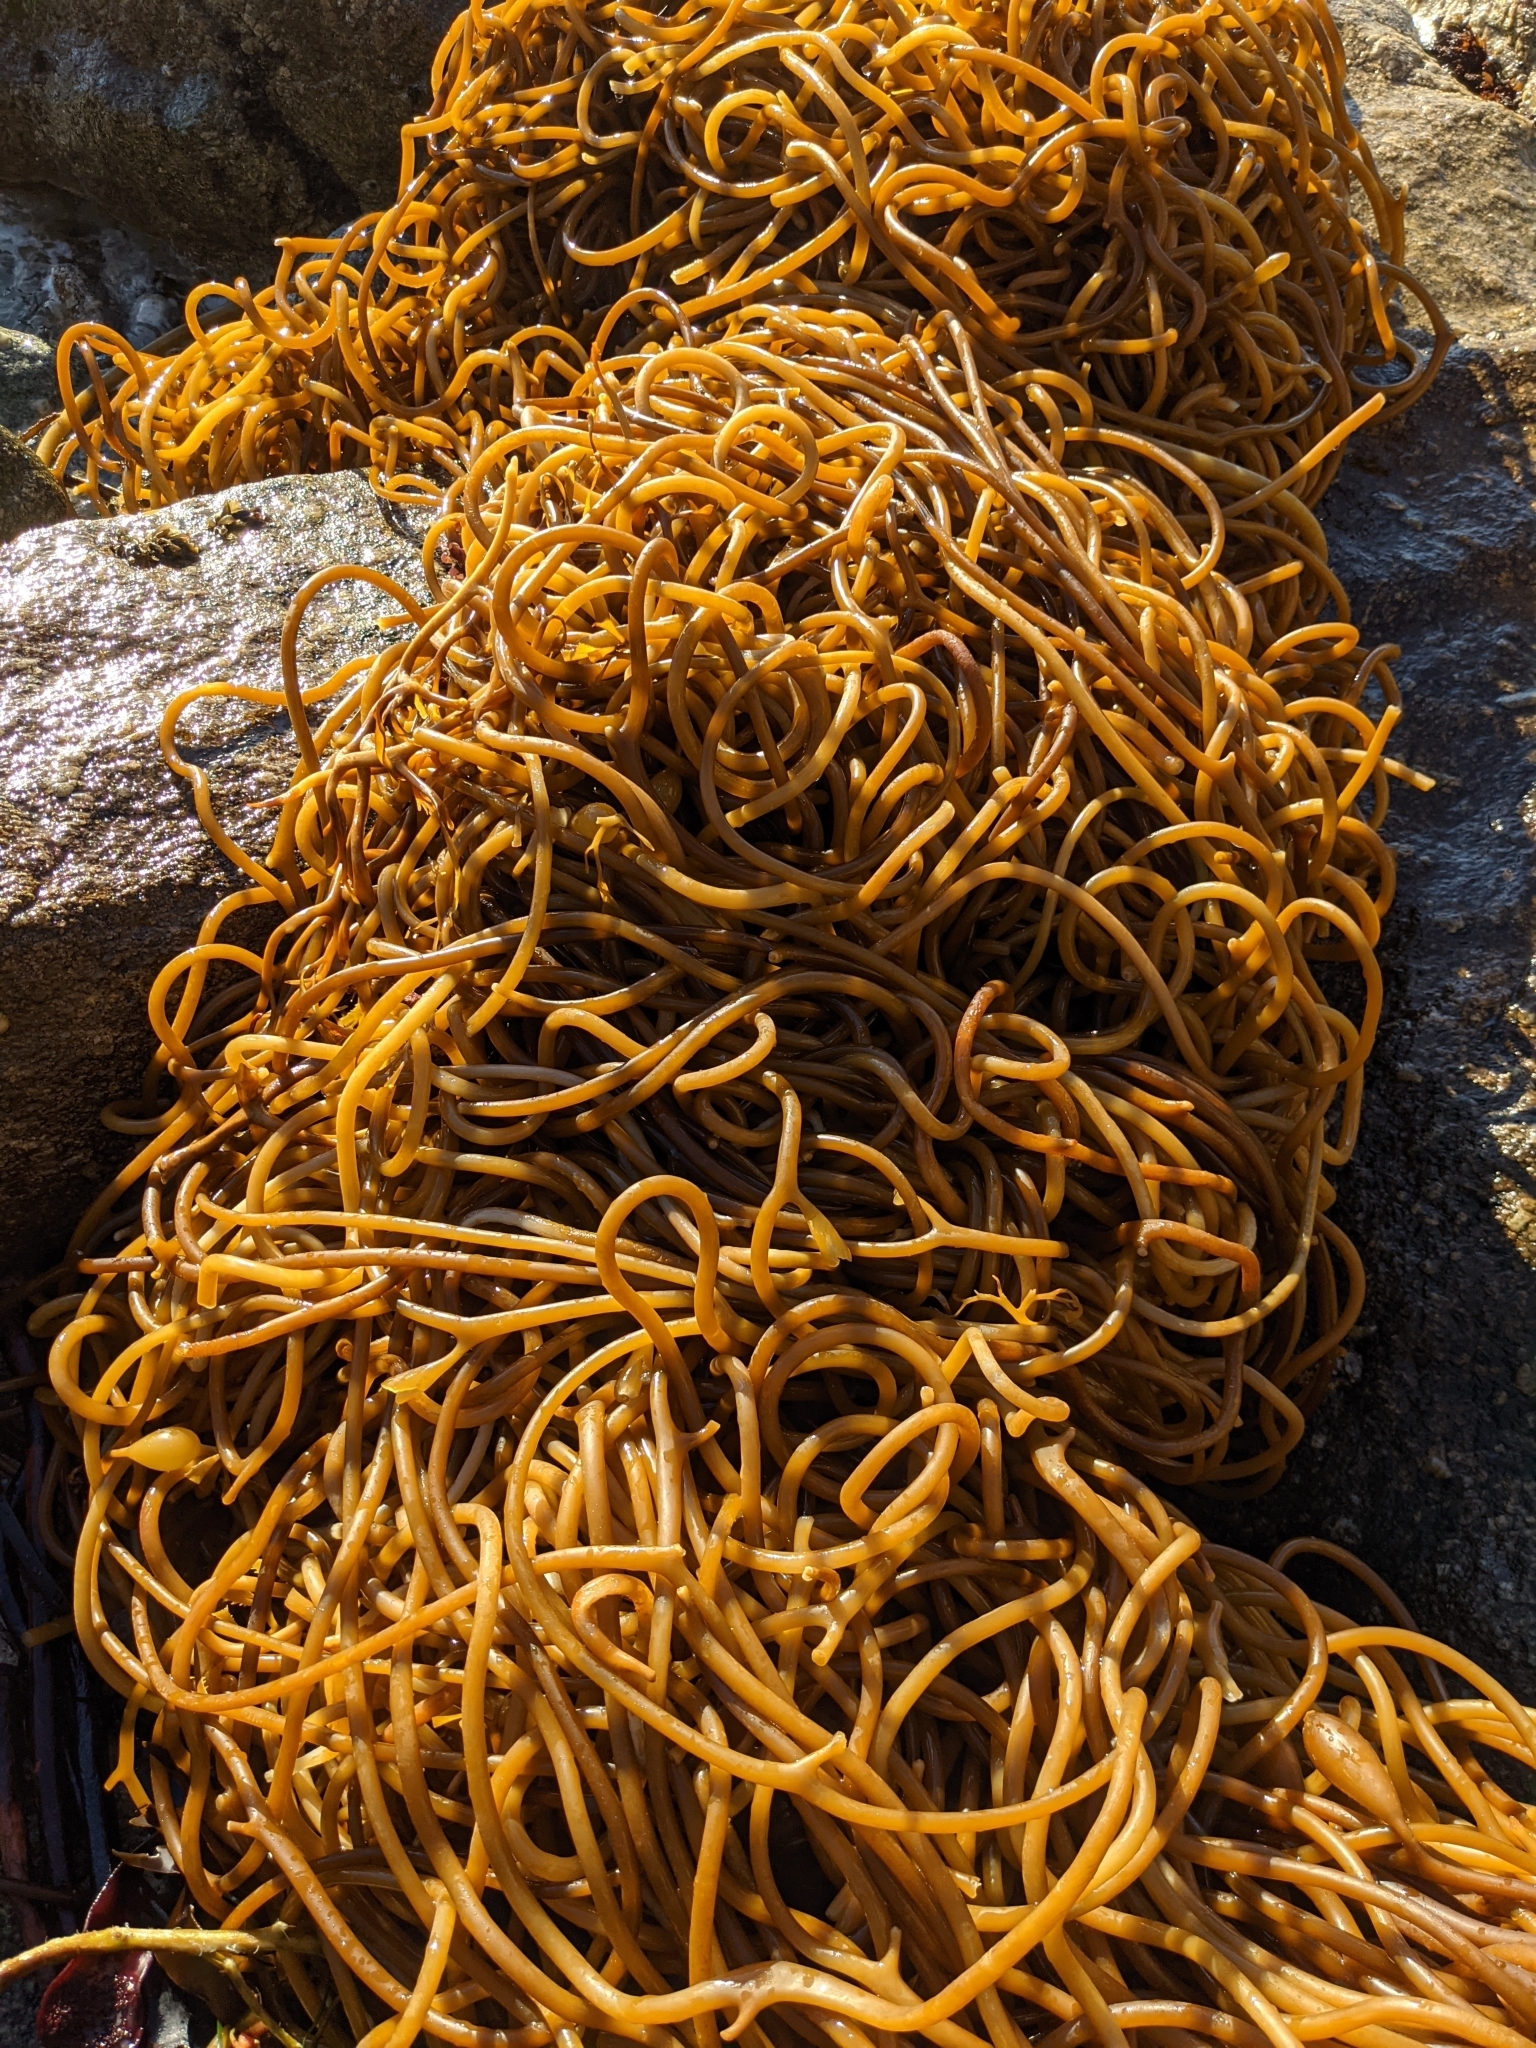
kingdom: Chromista
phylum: Ochrophyta
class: Phaeophyceae
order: Laminariales
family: Laminariaceae
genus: Macrocystis
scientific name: Macrocystis pyrifera
